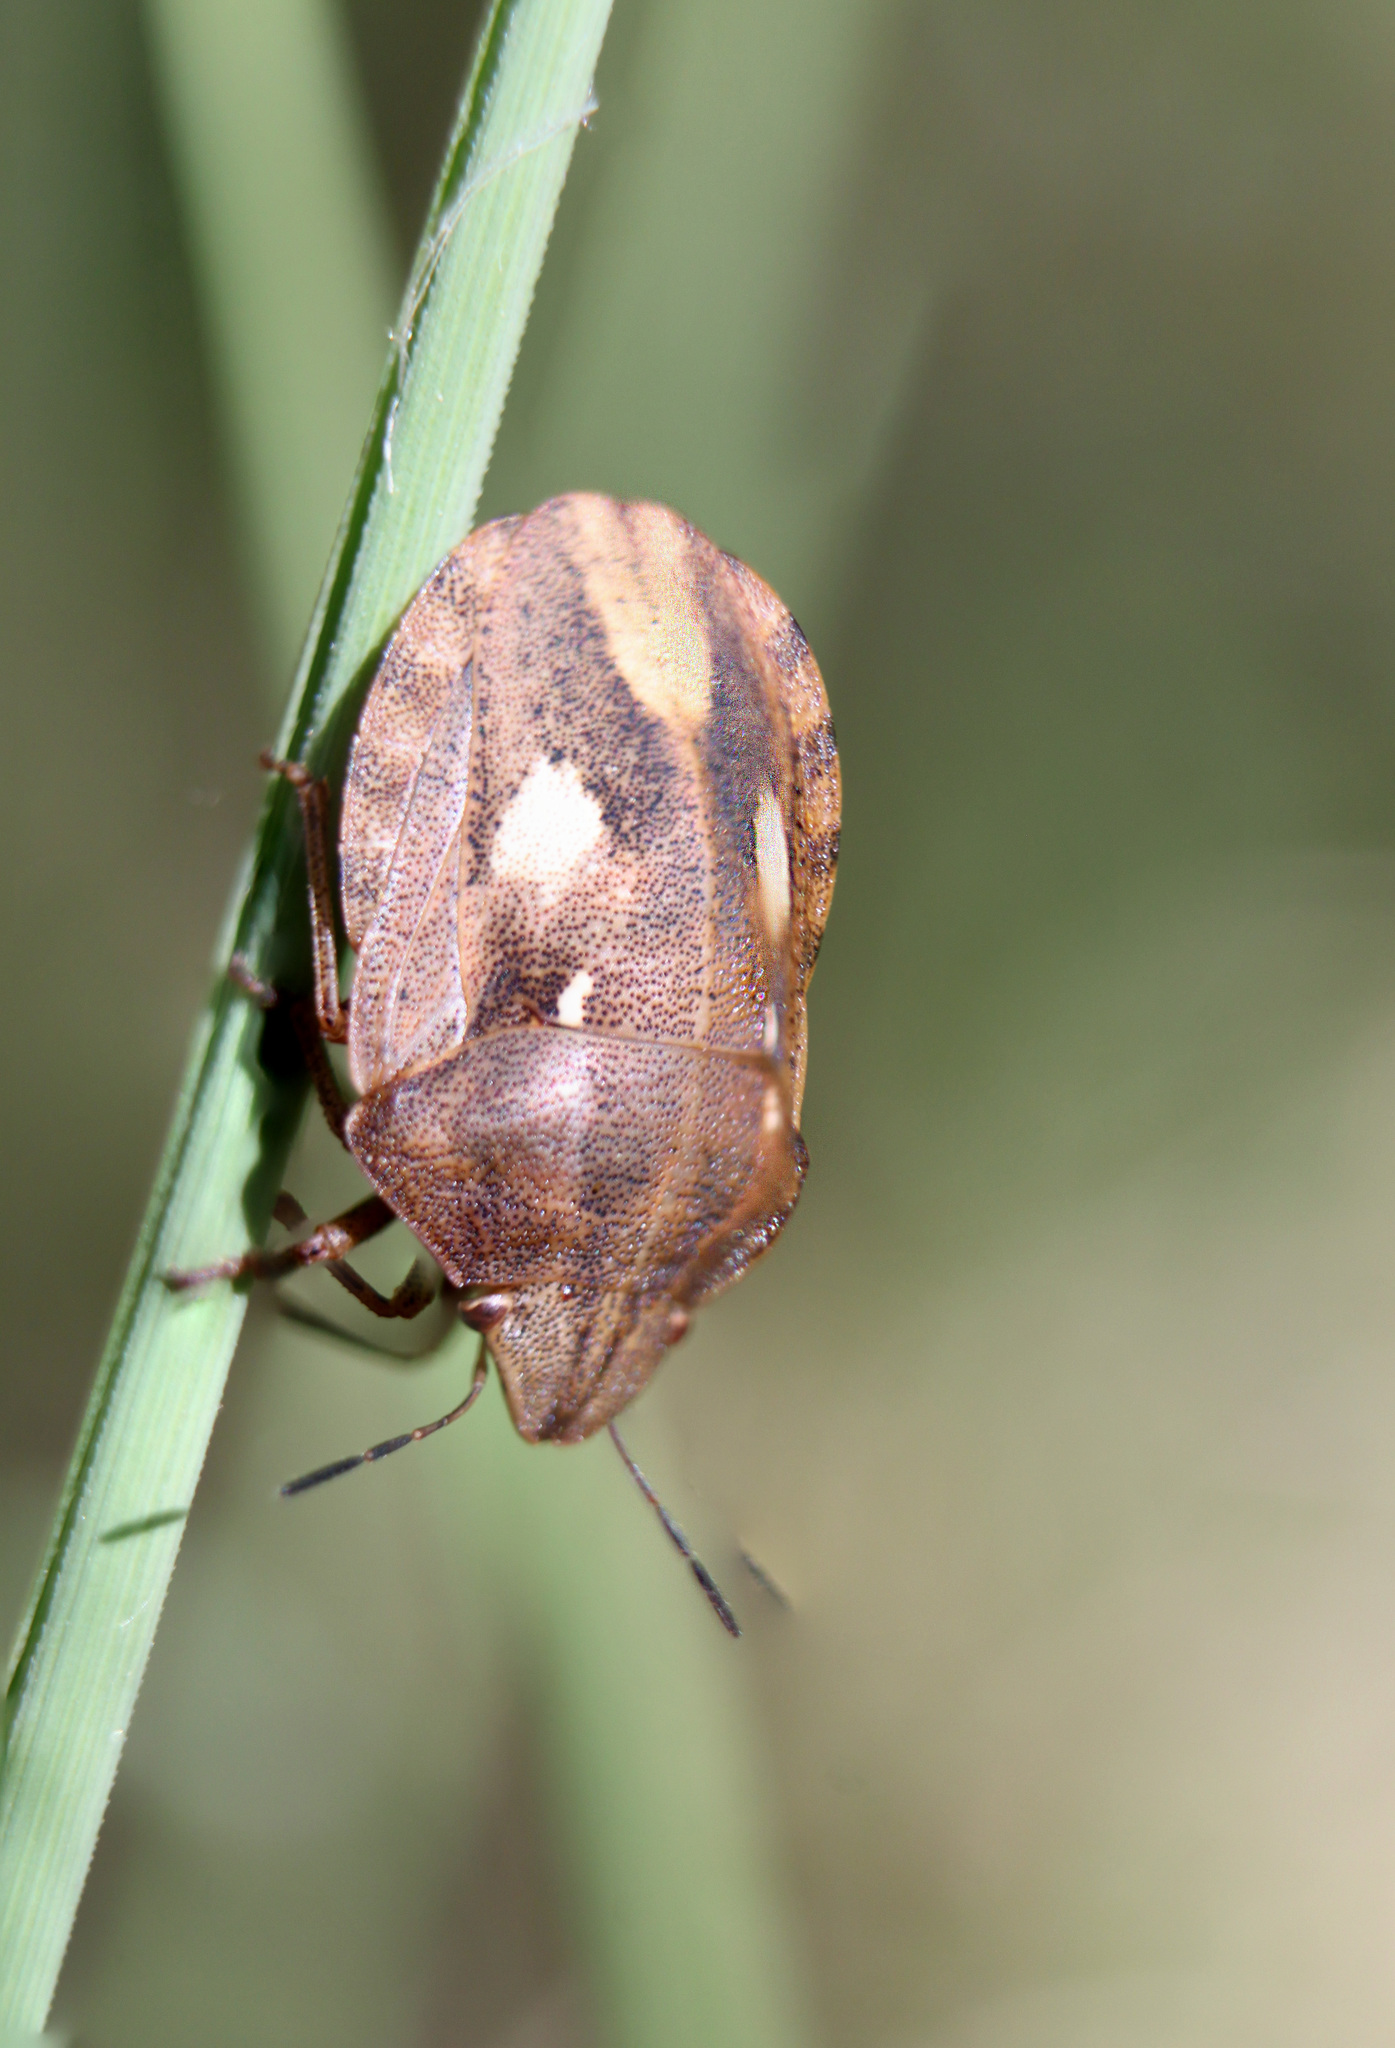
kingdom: Animalia
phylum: Arthropoda
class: Insecta
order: Hemiptera
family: Scutelleridae
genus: Eurygaster
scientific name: Eurygaster maura
